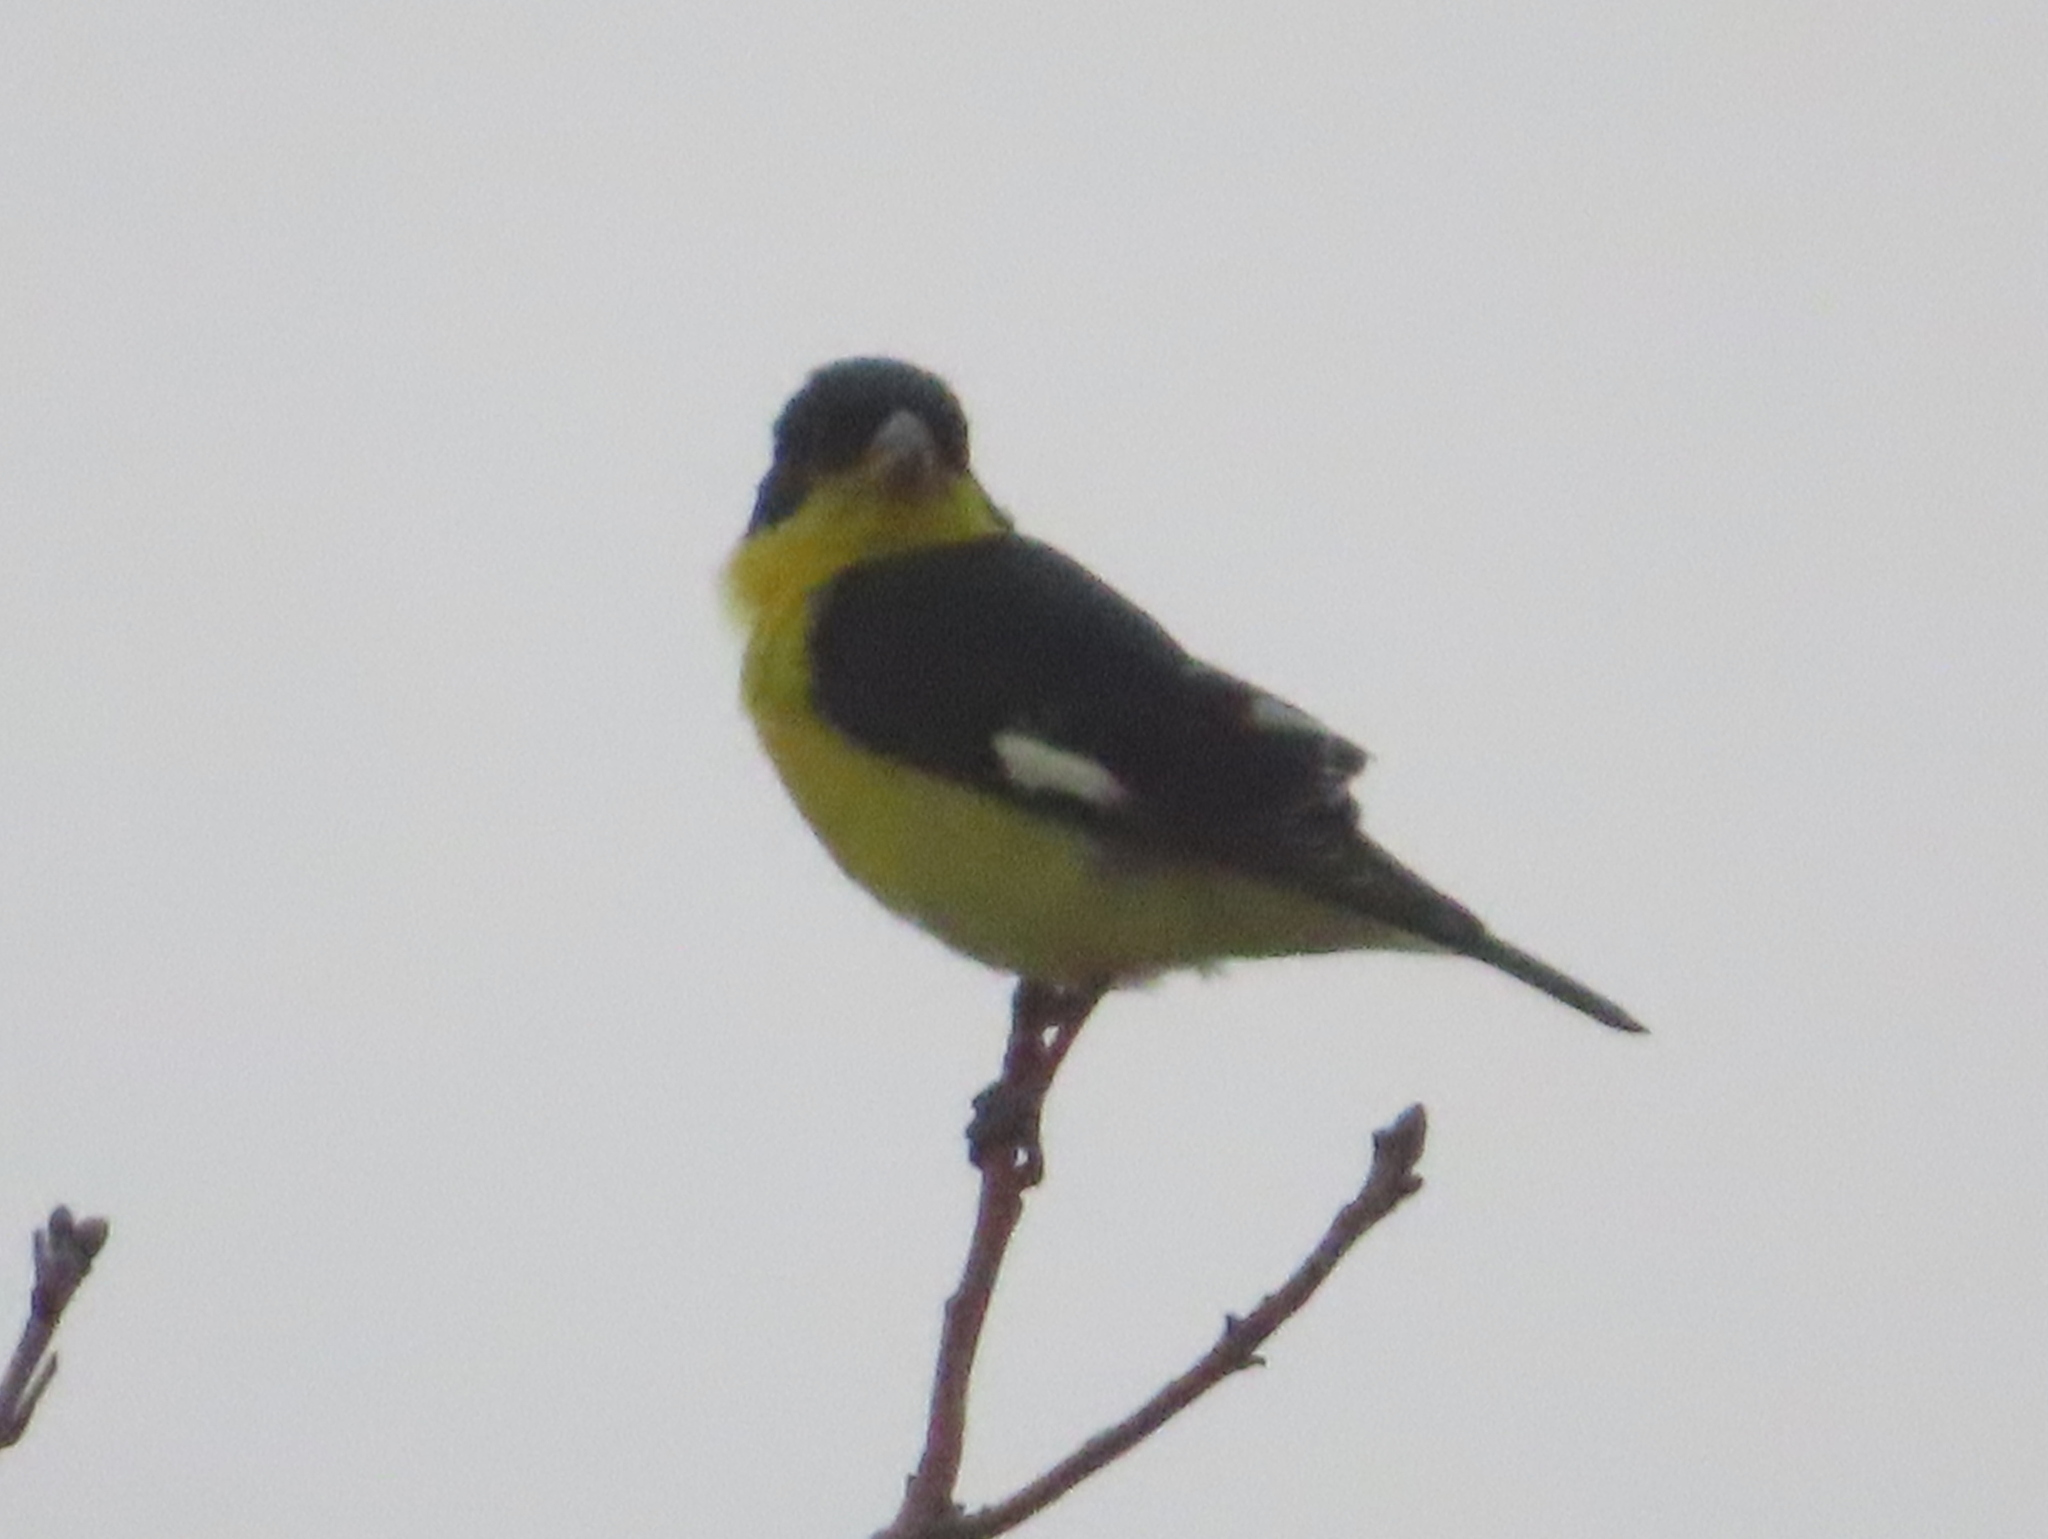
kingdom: Animalia
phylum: Chordata
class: Aves
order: Passeriformes
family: Fringillidae
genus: Spinus
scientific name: Spinus psaltria
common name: Lesser goldfinch
